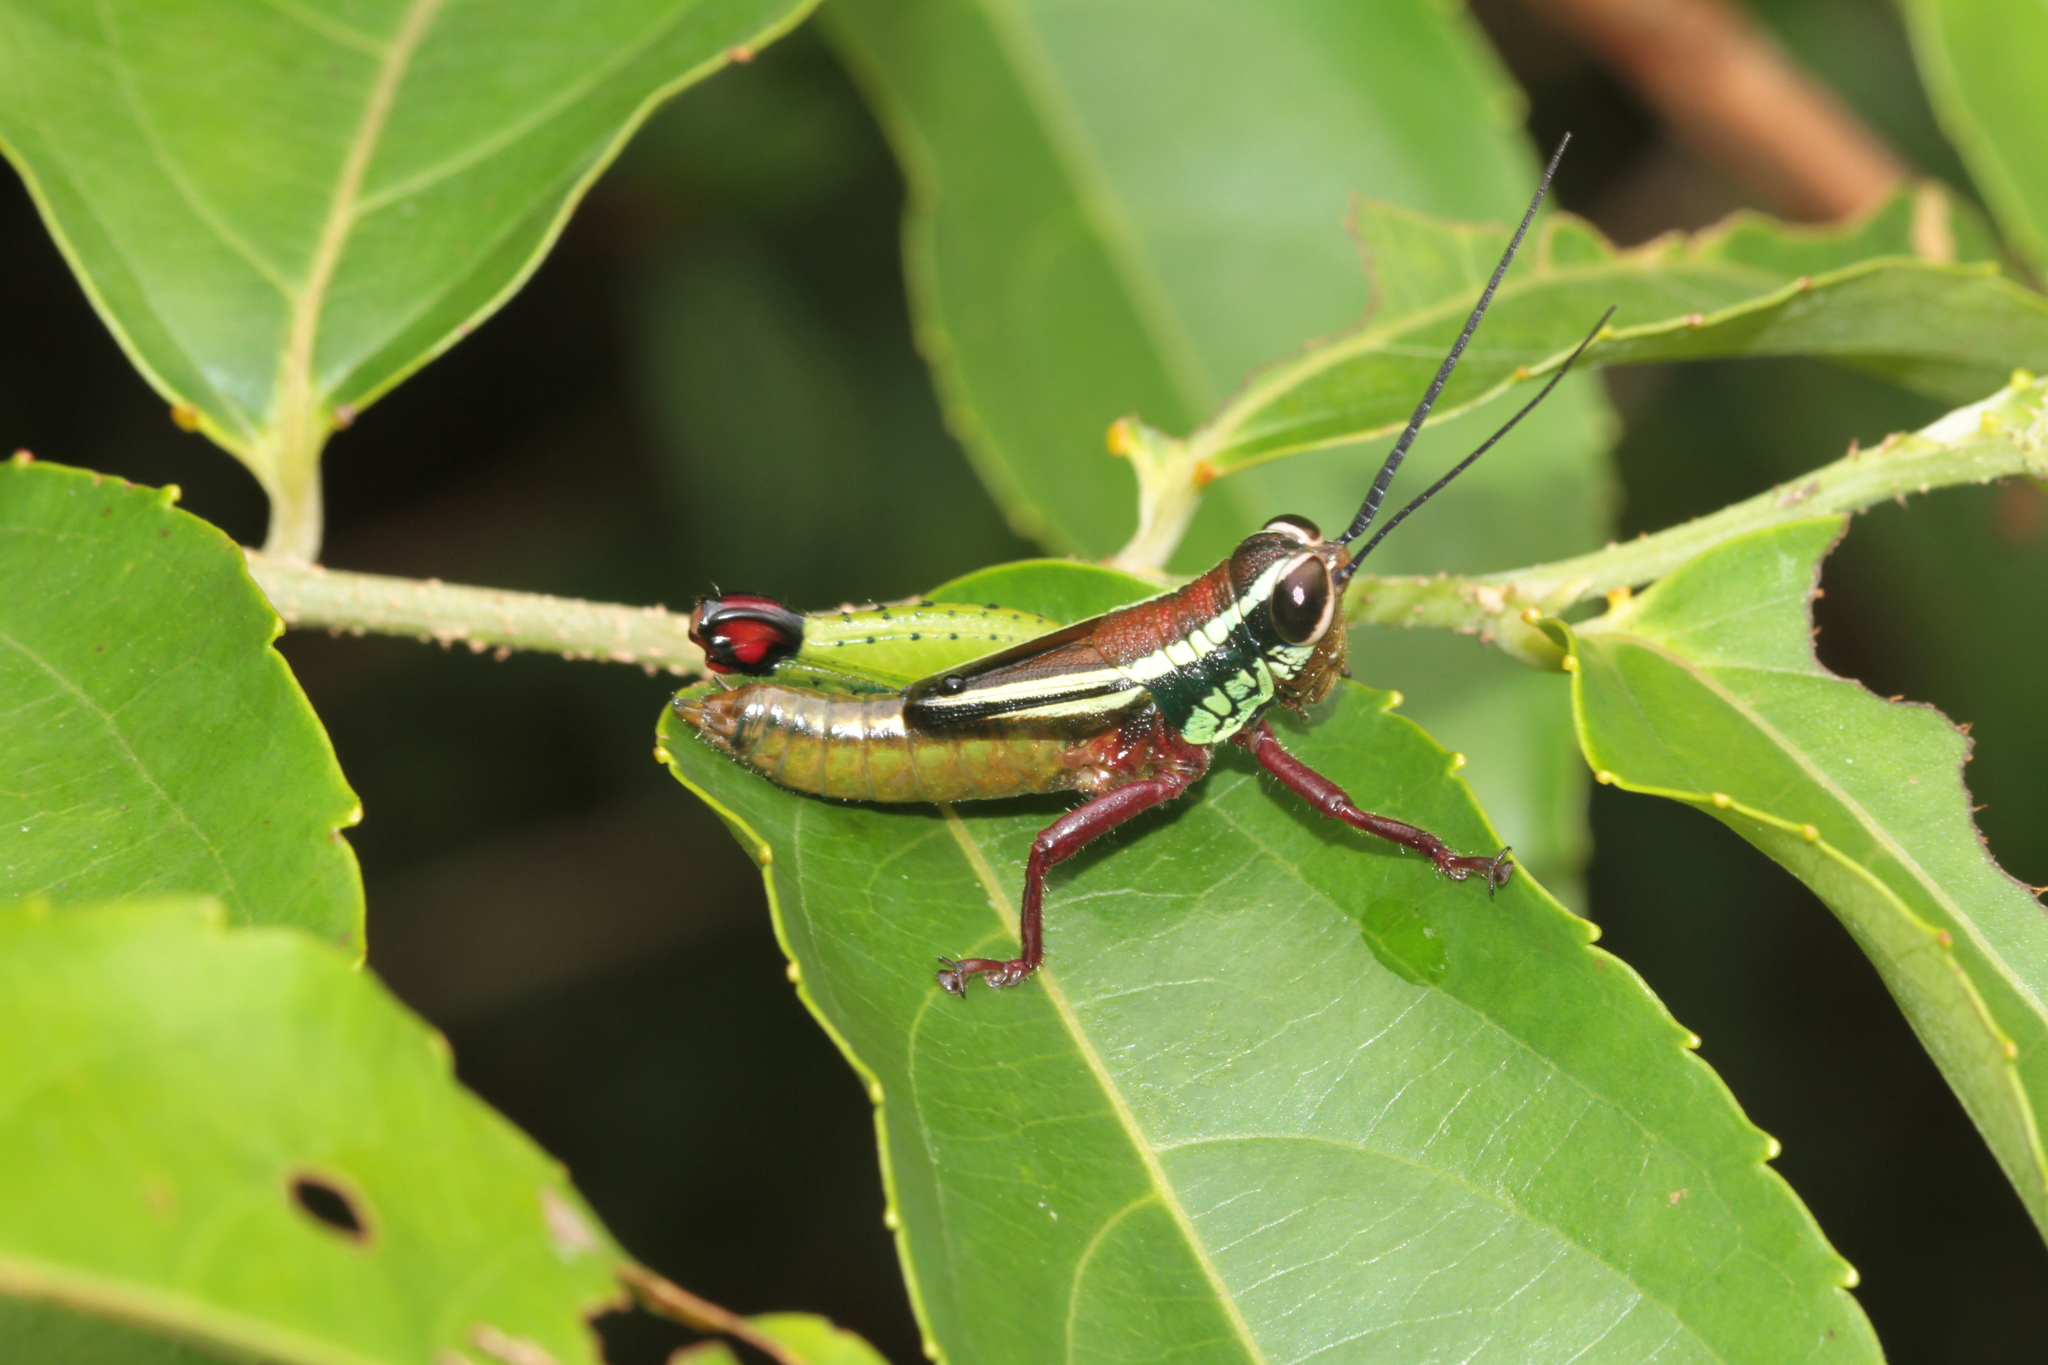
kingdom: Animalia
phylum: Arthropoda
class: Insecta
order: Orthoptera
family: Romaleidae
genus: Othnacris
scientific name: Othnacris surdaster
